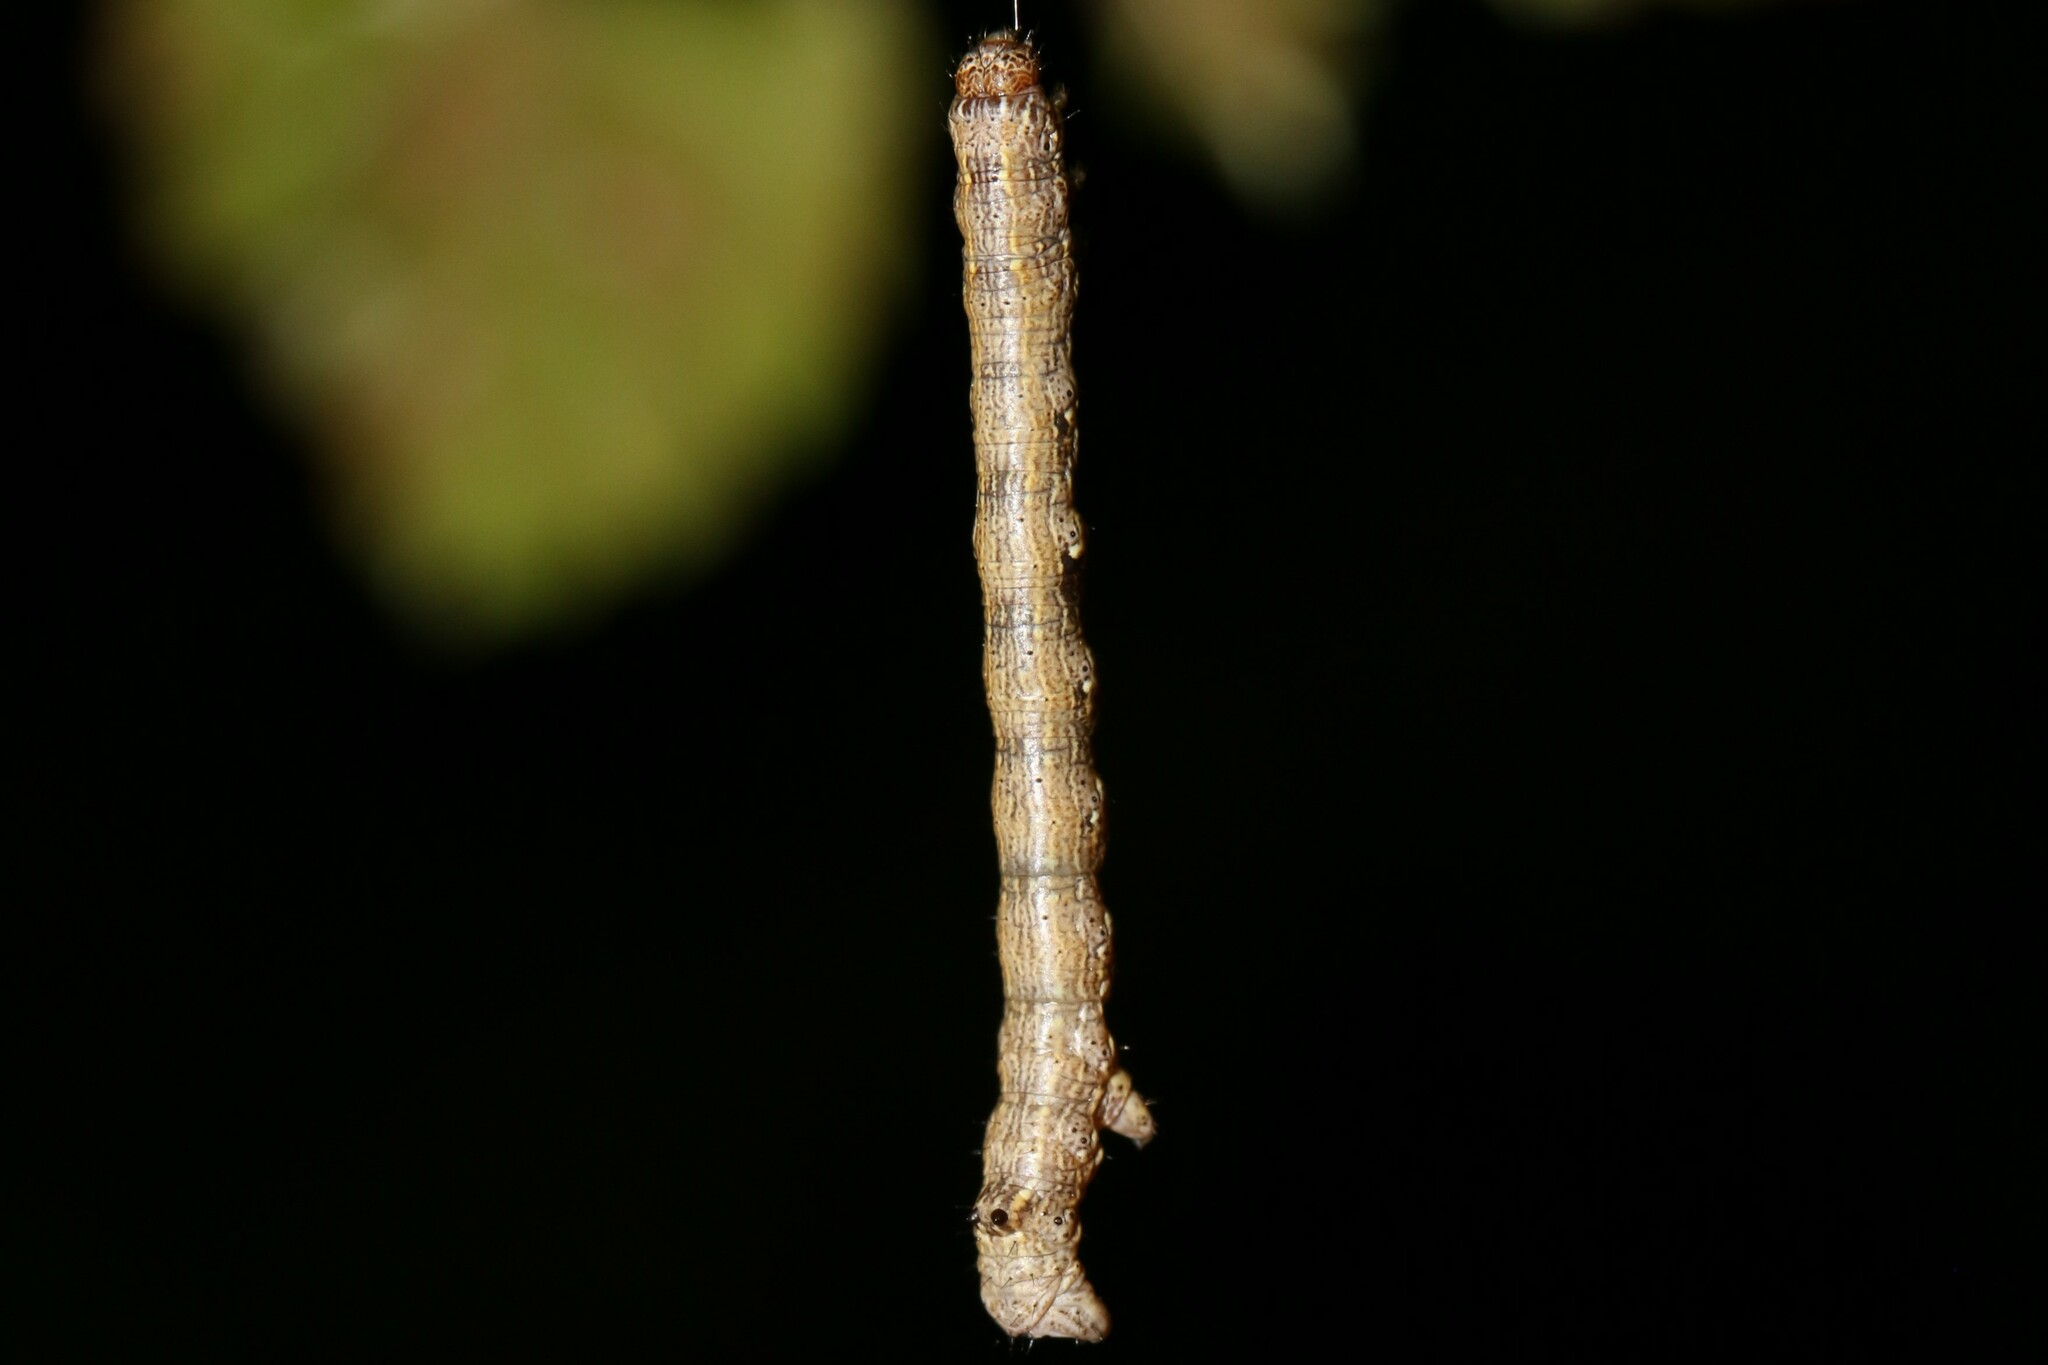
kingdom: Animalia
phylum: Arthropoda
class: Insecta
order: Lepidoptera
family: Geometridae
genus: Colotois
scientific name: Colotois pennaria
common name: Feathered thorn
